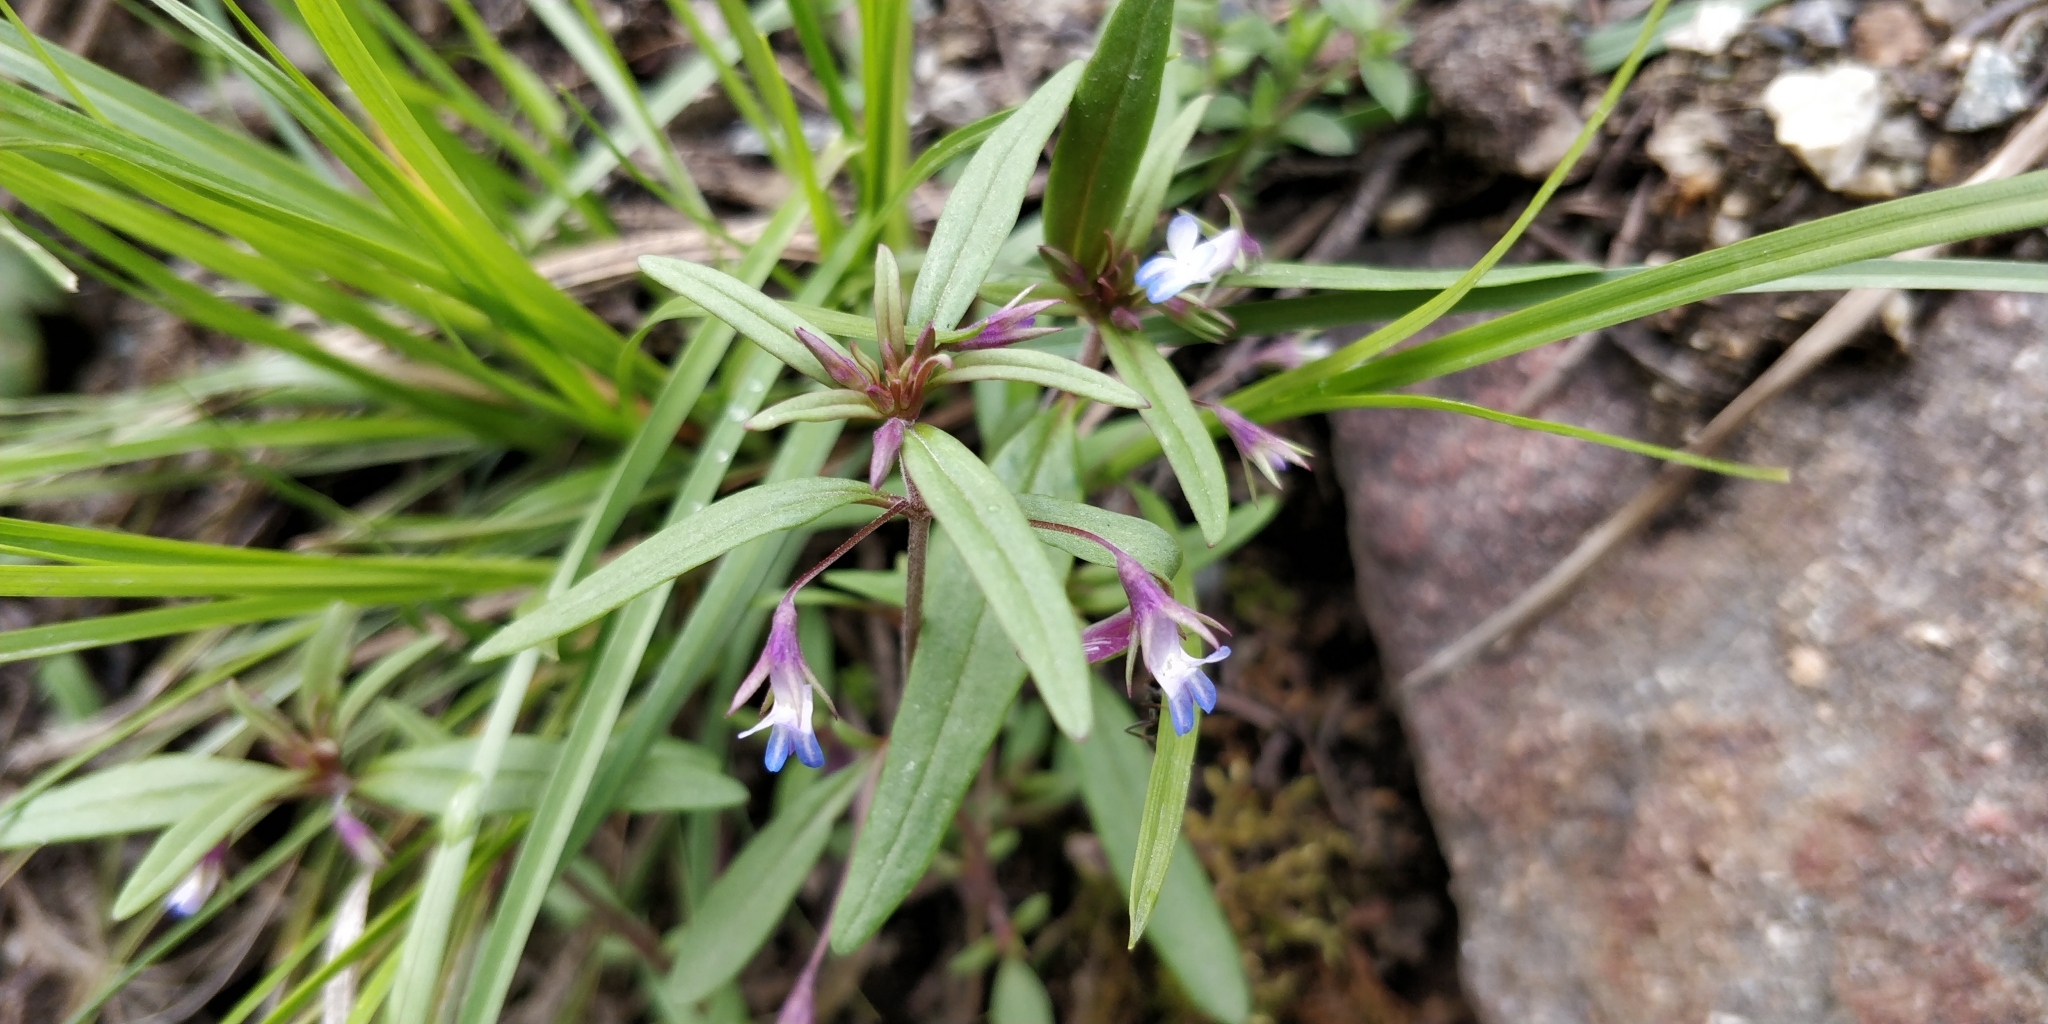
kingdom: Plantae
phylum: Tracheophyta
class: Magnoliopsida
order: Lamiales
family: Plantaginaceae
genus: Collinsia
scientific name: Collinsia parviflora
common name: Blue-lips
